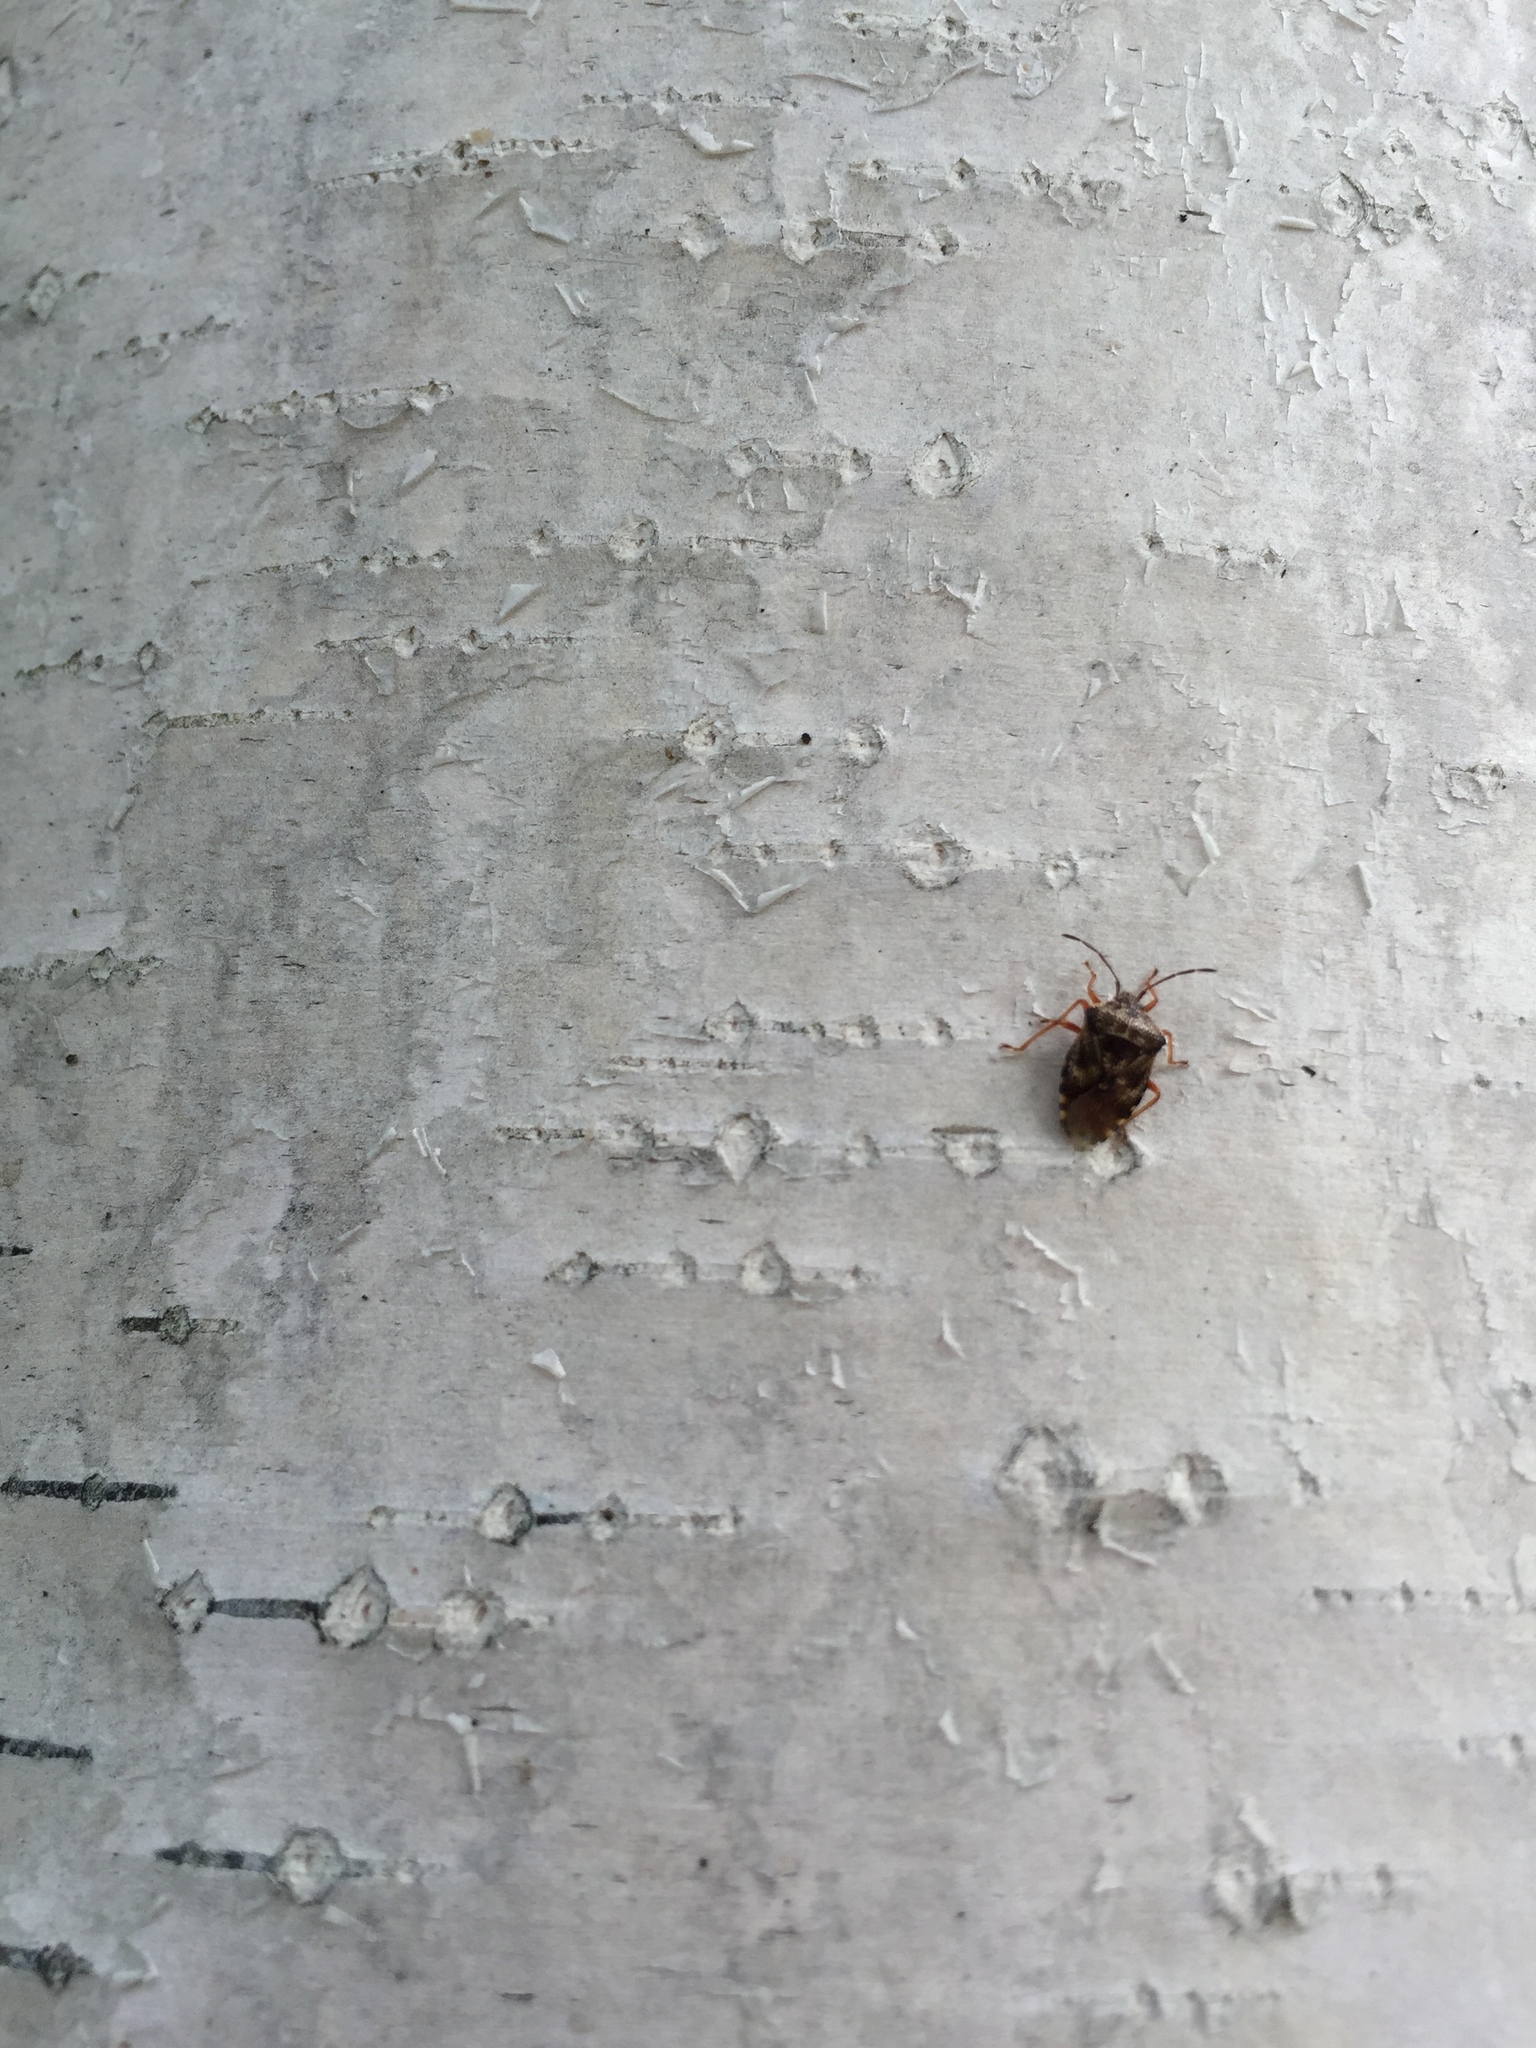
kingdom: Animalia
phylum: Arthropoda
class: Insecta
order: Hemiptera
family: Acanthosomatidae
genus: Elasmucha
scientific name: Elasmucha lateralis
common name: Shield bug
